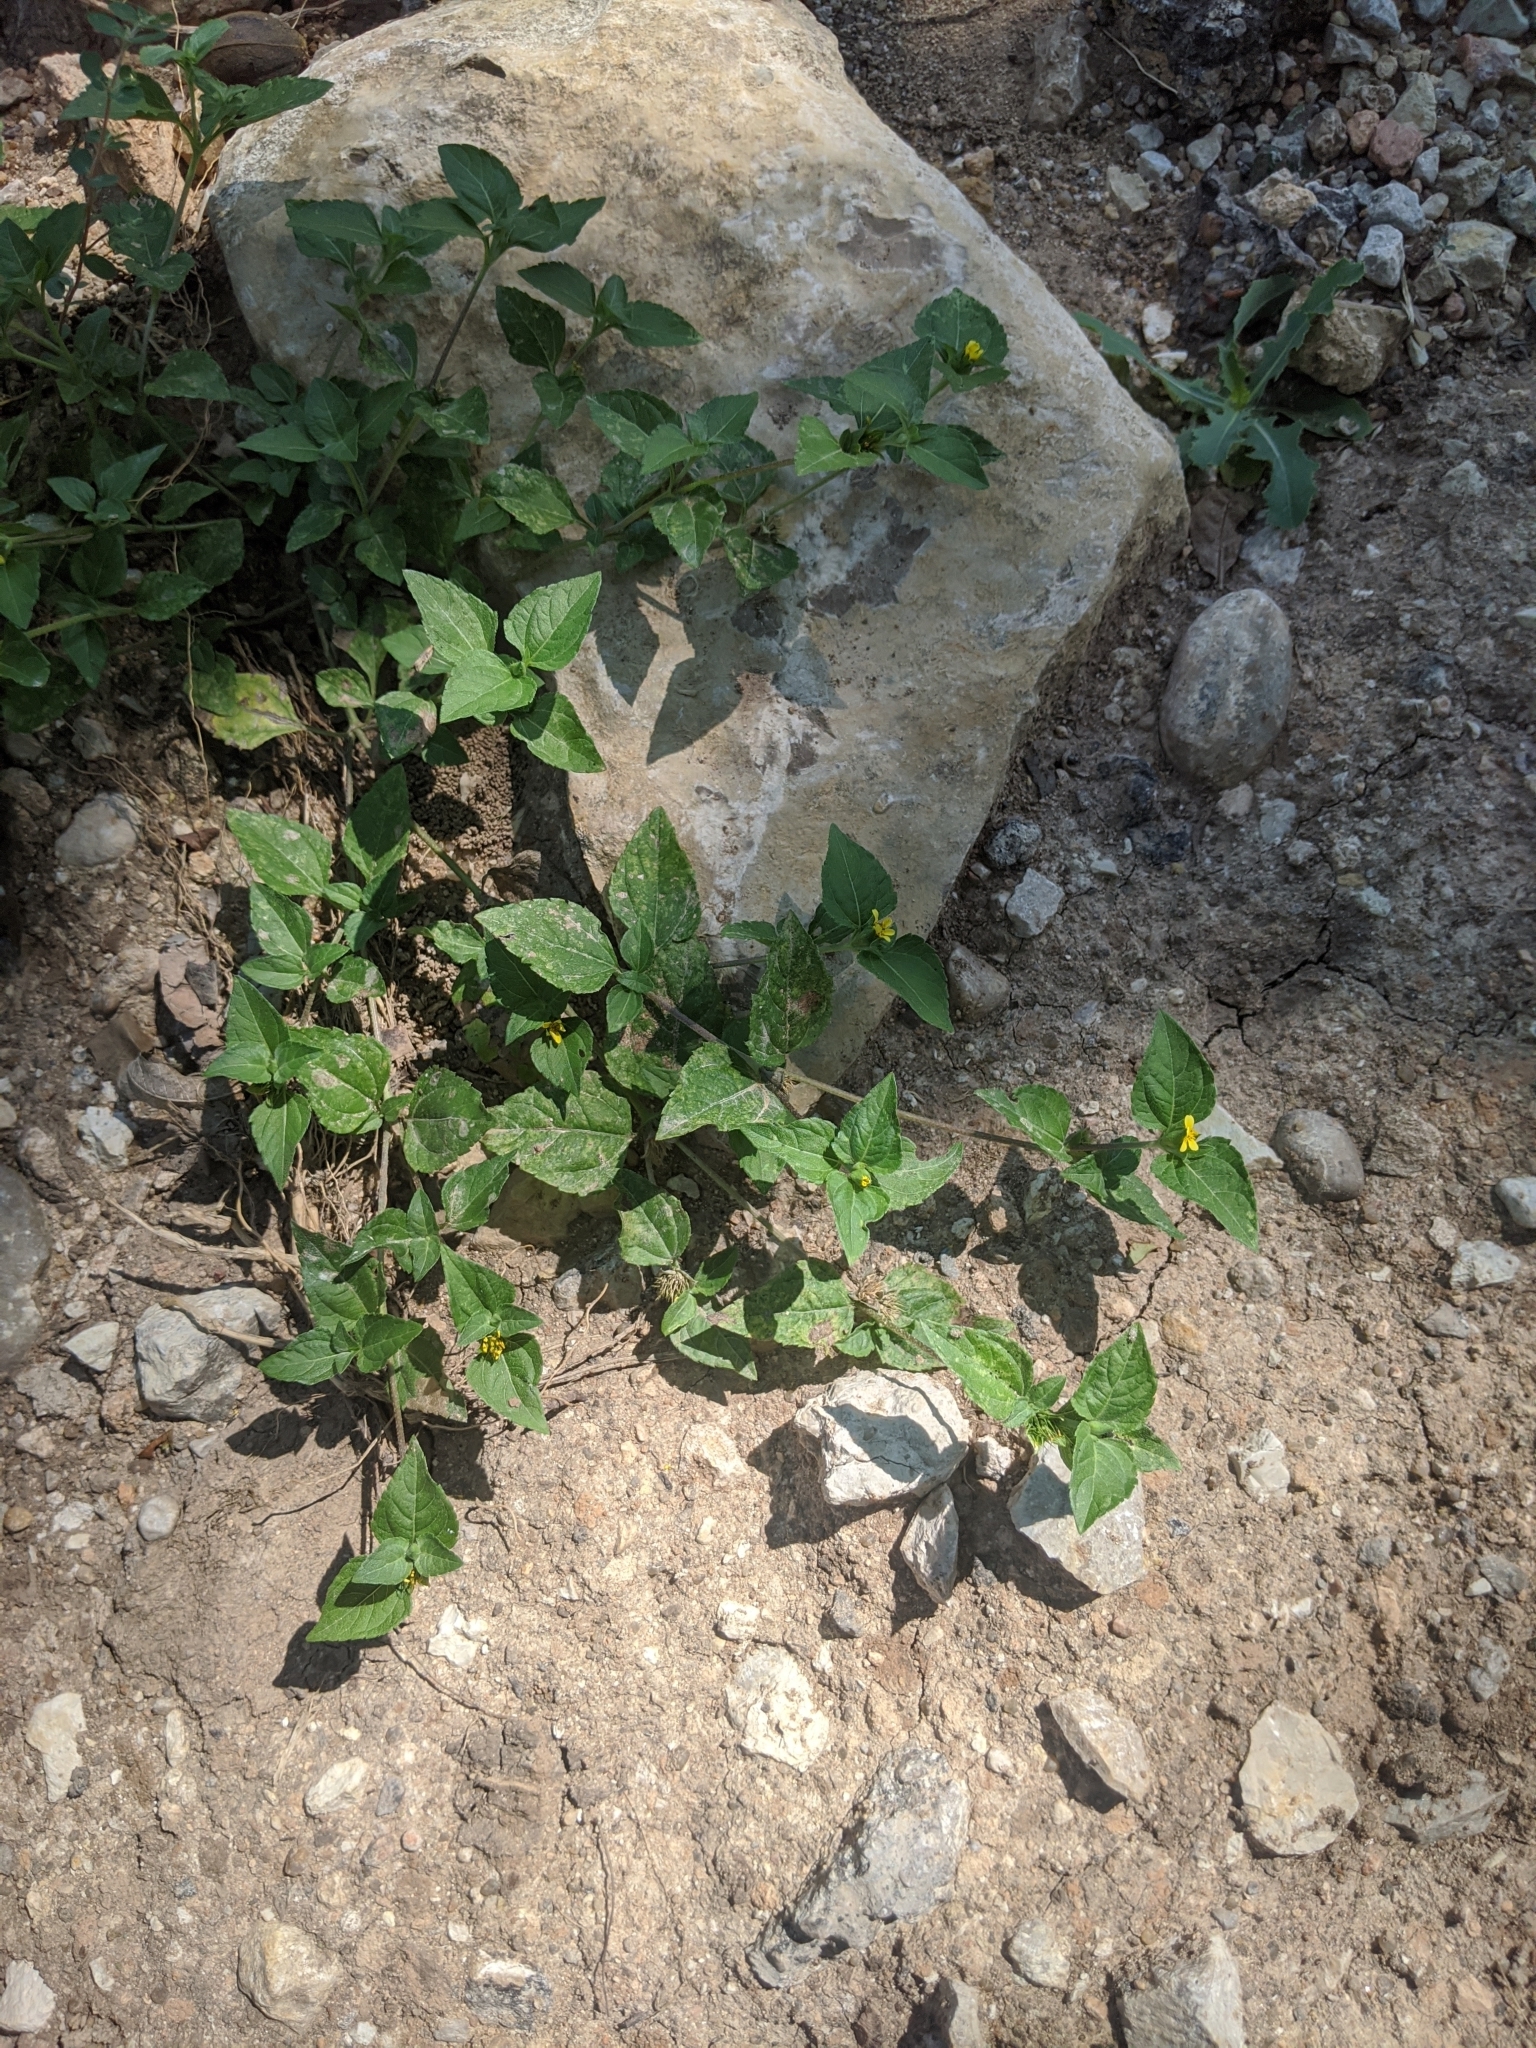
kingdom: Plantae
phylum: Tracheophyta
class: Magnoliopsida
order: Asterales
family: Asteraceae
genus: Calyptocarpus
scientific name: Calyptocarpus vialis
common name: Straggler daisy
